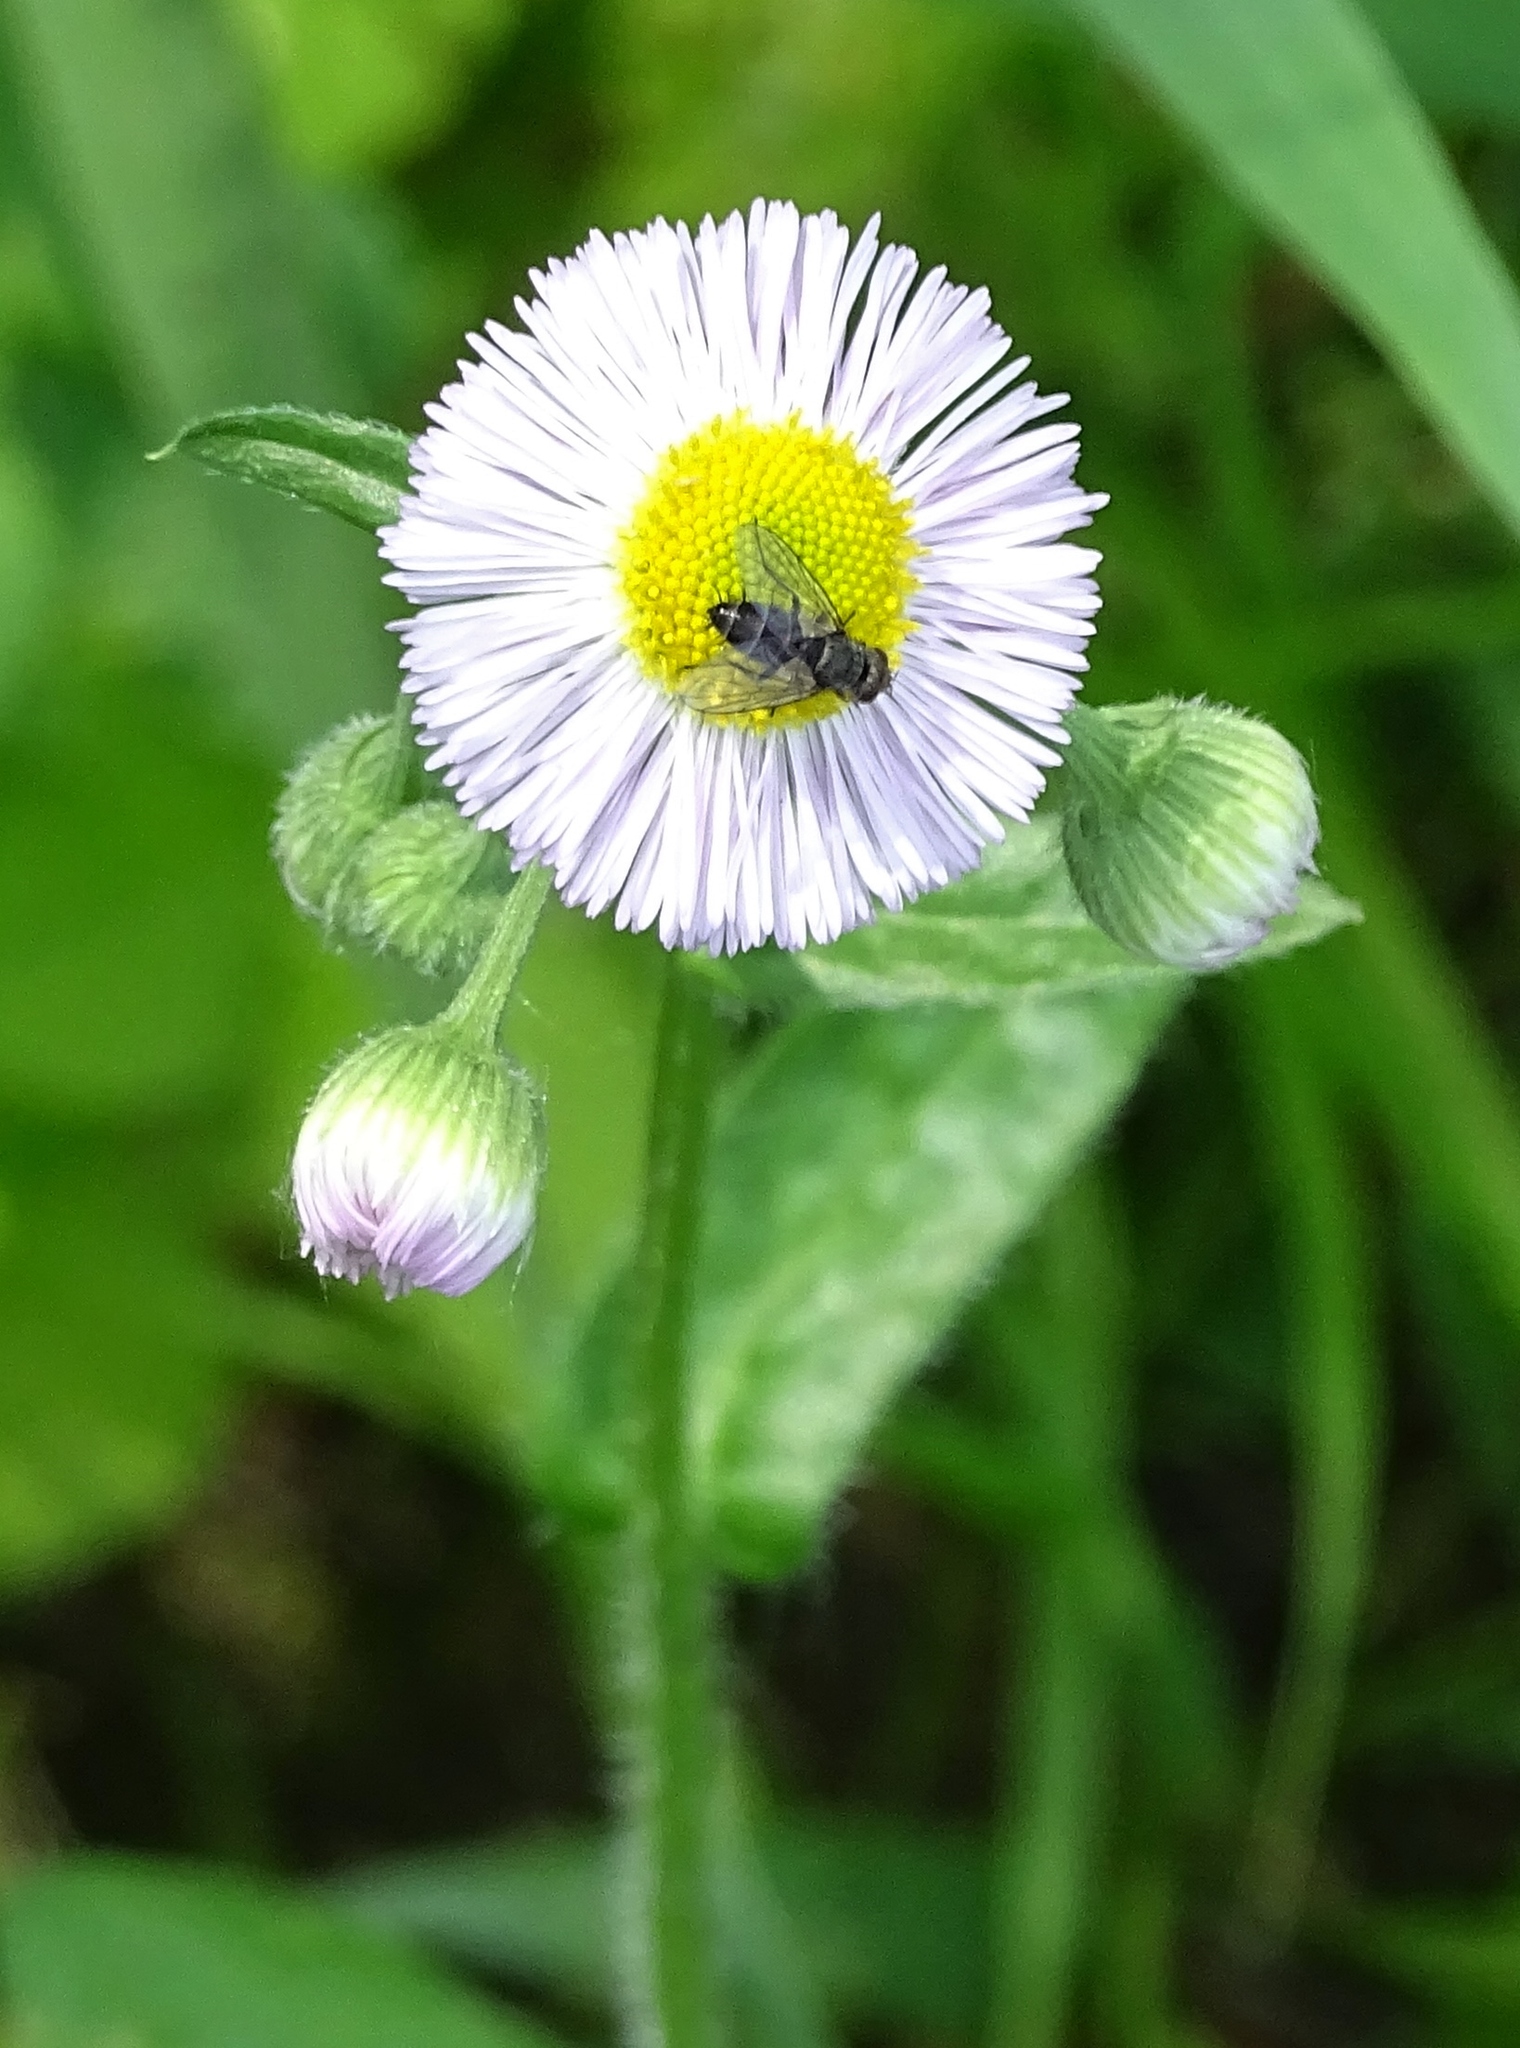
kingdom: Plantae
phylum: Tracheophyta
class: Magnoliopsida
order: Asterales
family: Asteraceae
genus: Erigeron
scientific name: Erigeron philadelphicus
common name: Robin's-plantain
